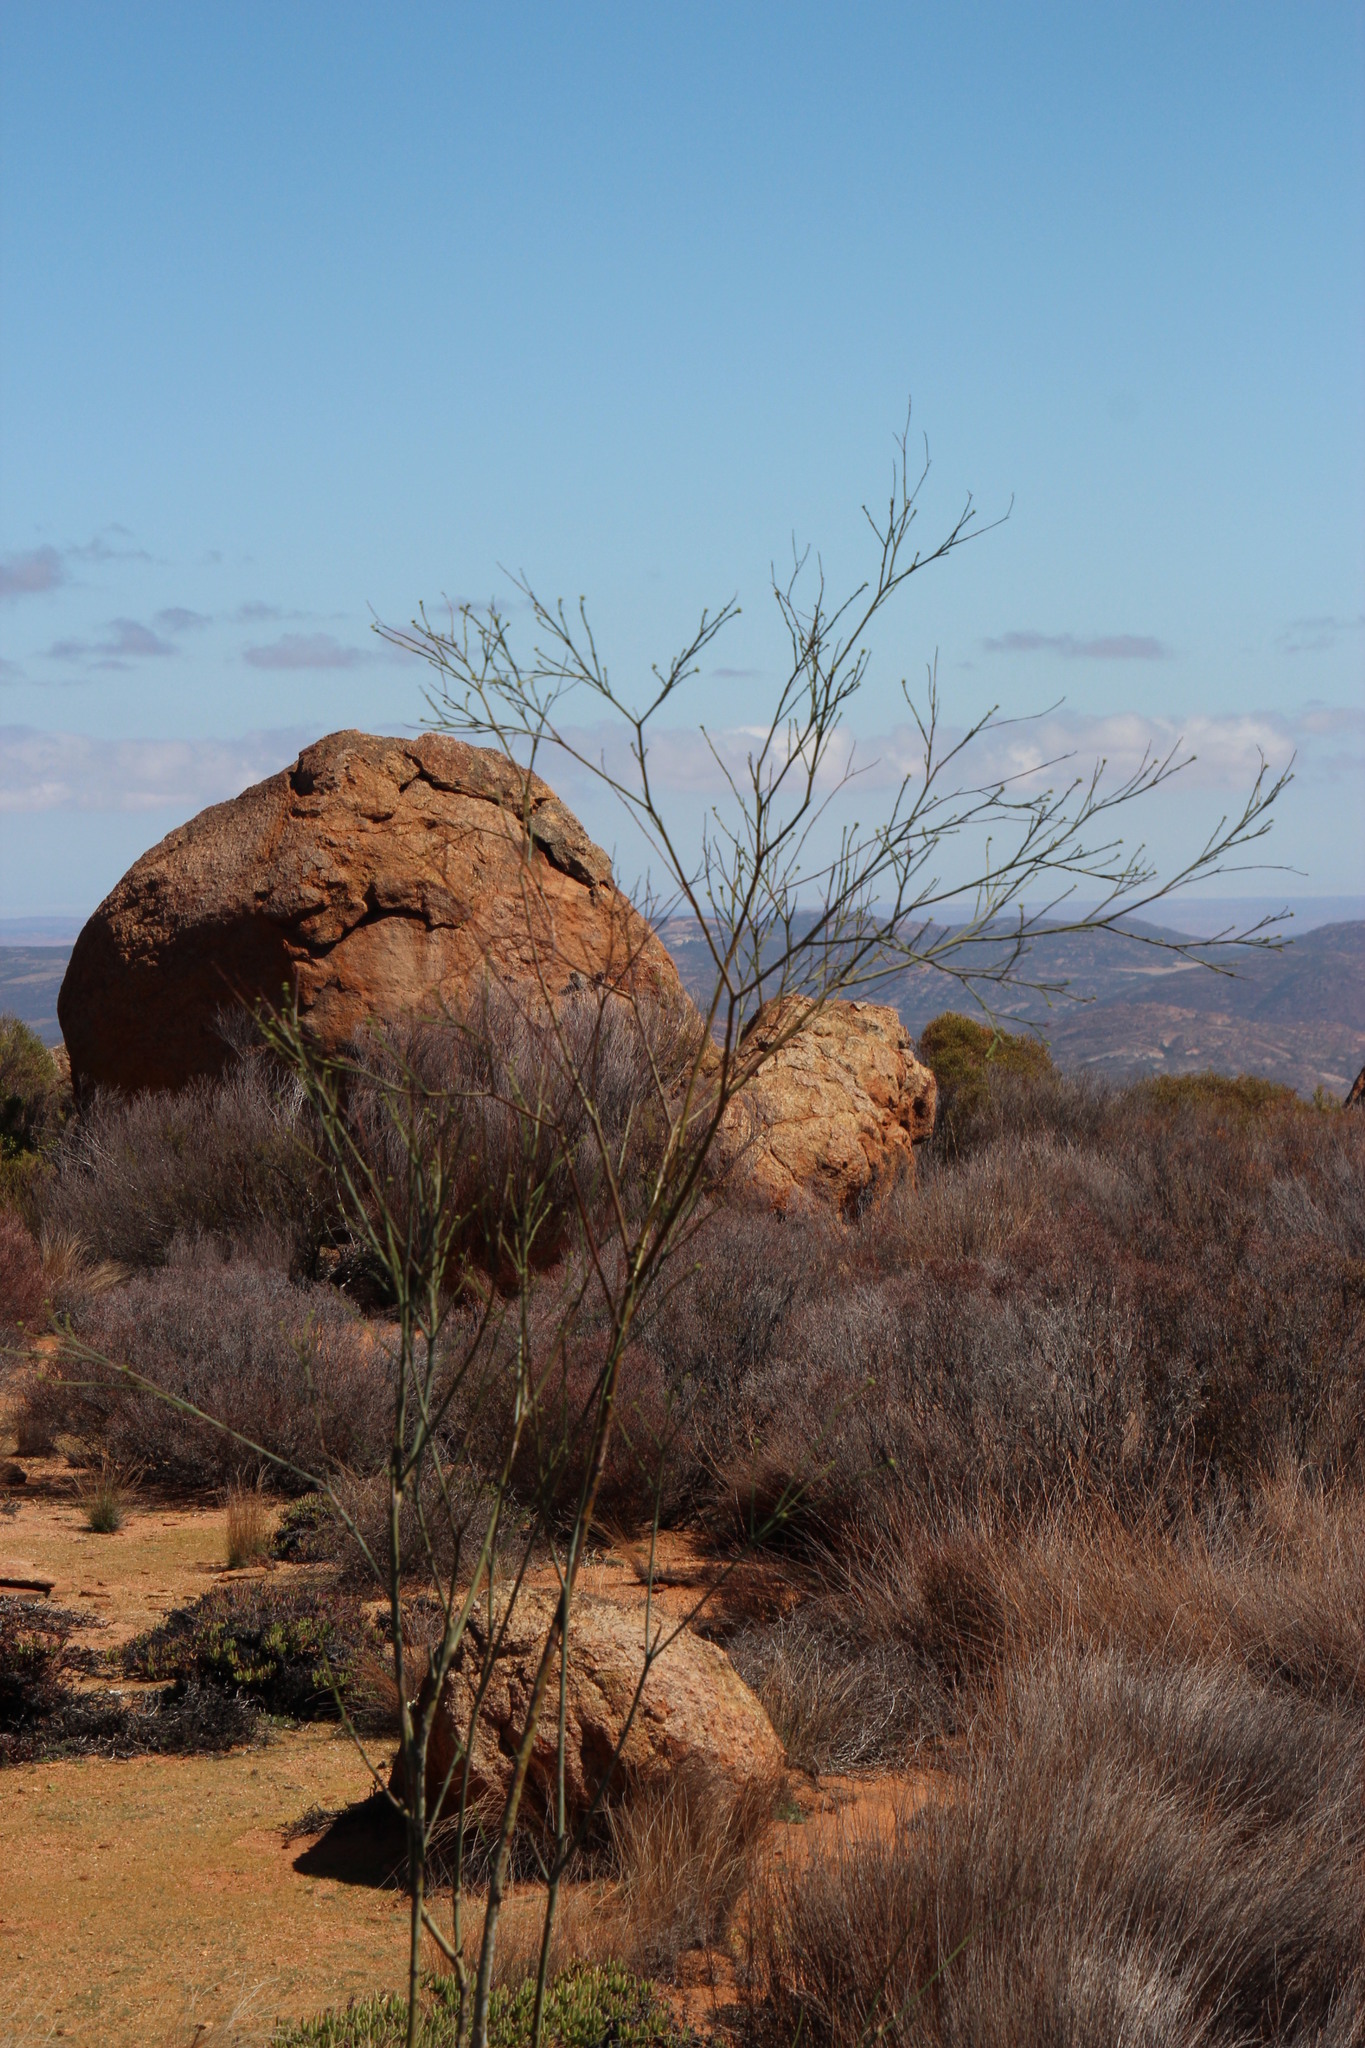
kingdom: Plantae
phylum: Tracheophyta
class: Magnoliopsida
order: Santalales
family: Thesiaceae
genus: Thesium
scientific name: Thesium strictum
